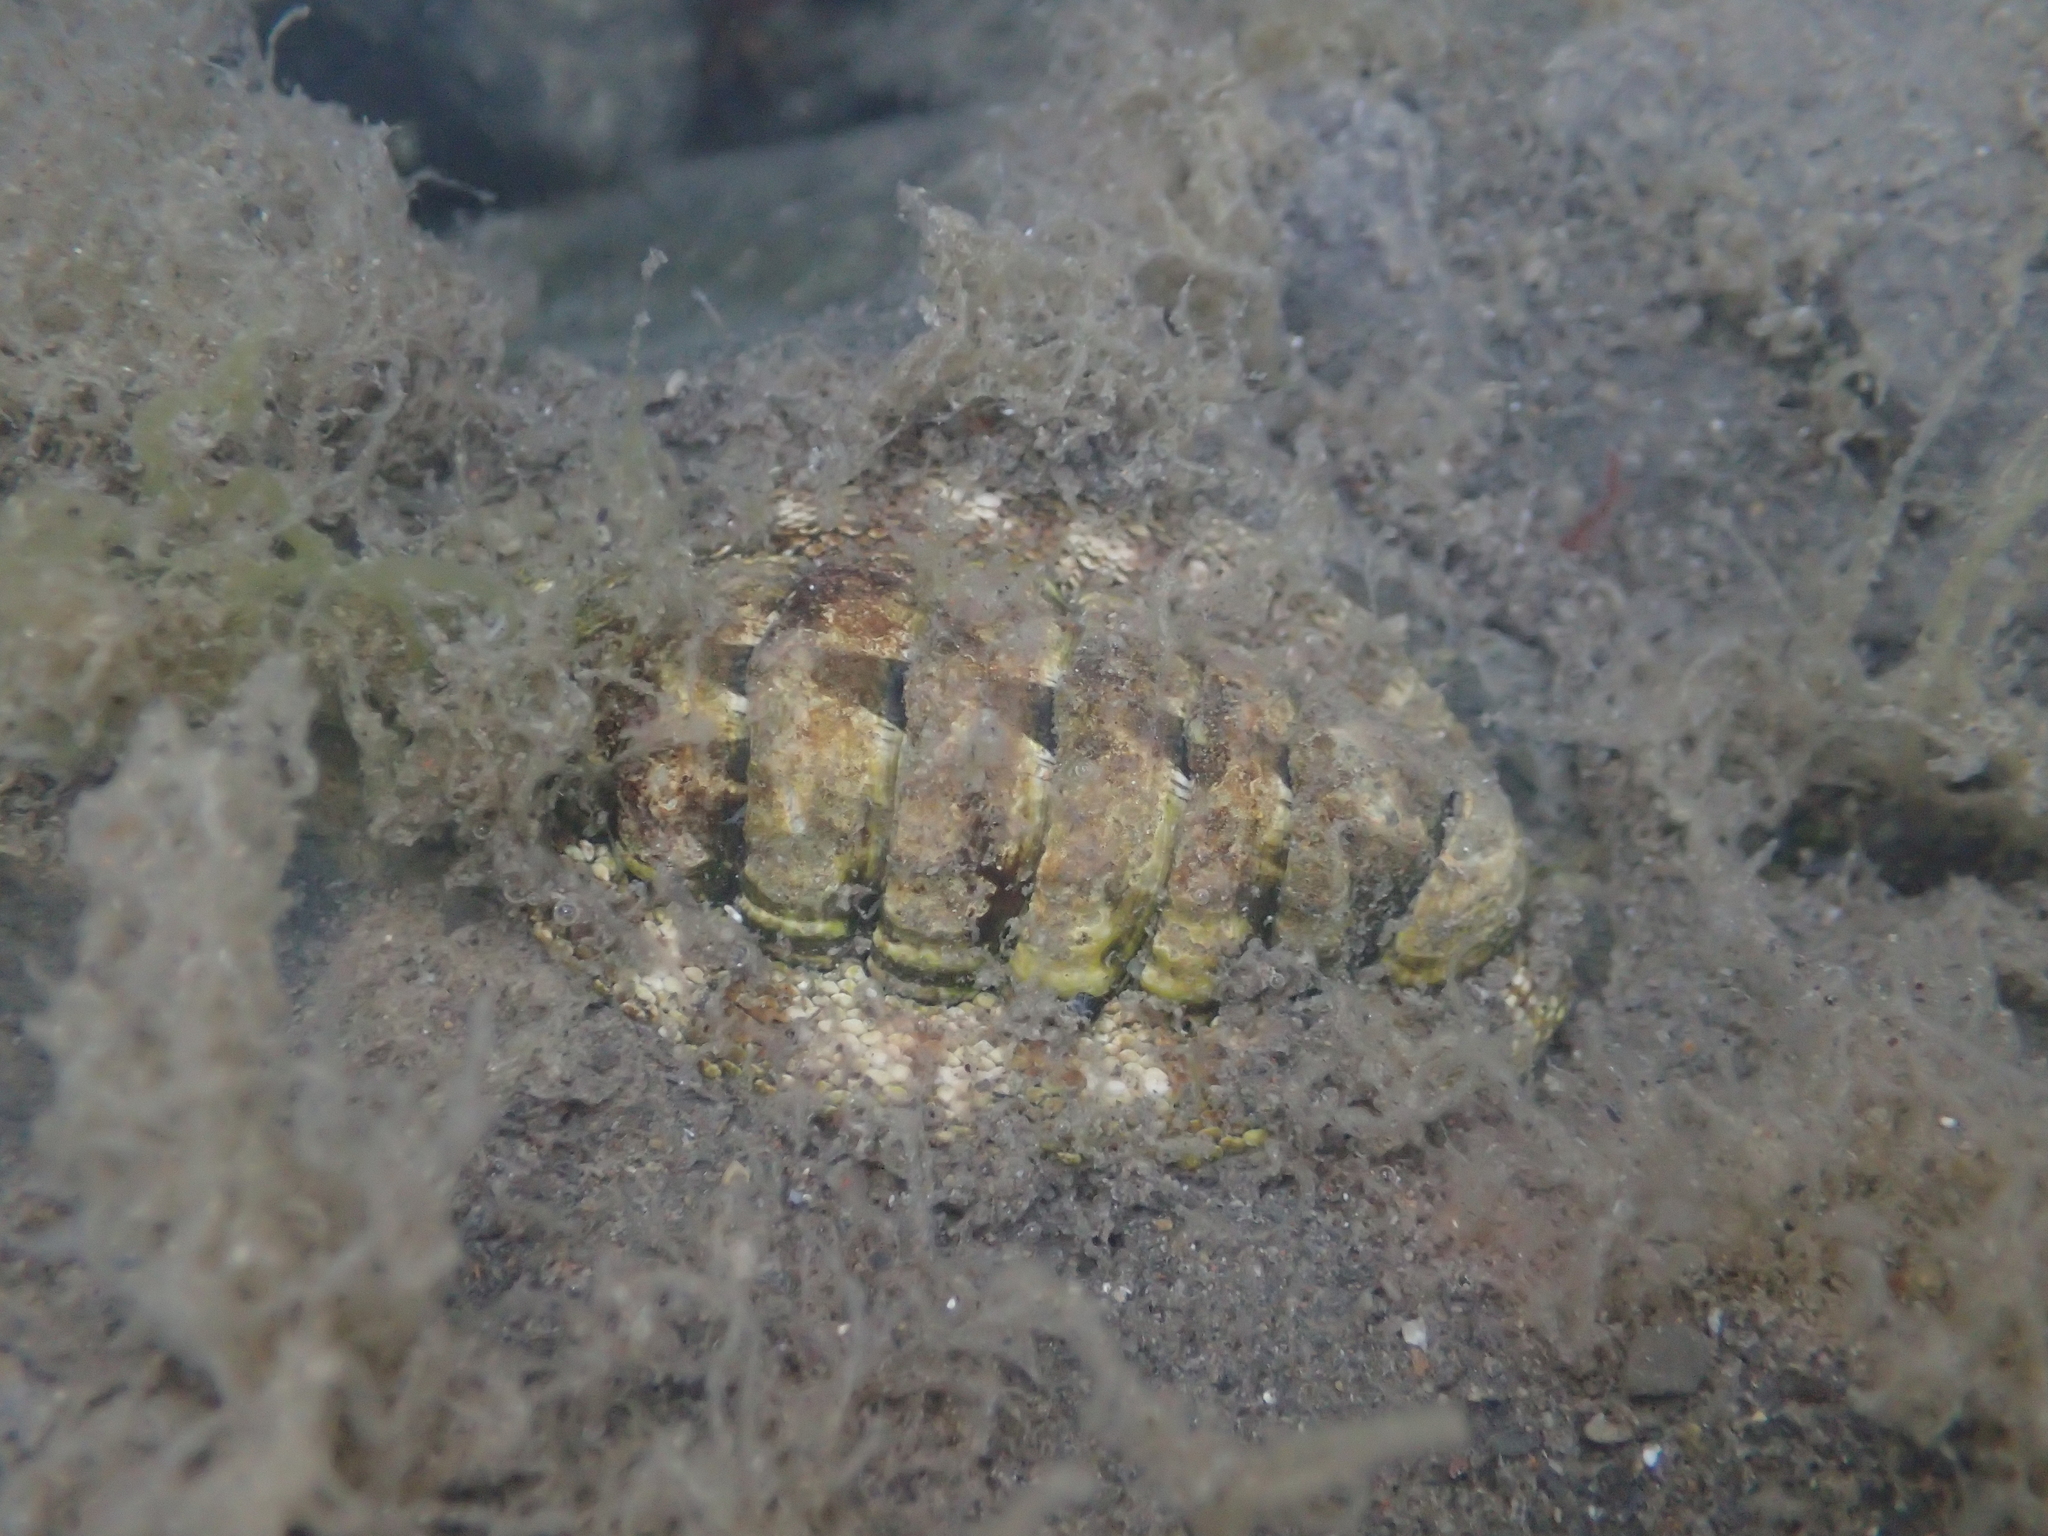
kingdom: Animalia
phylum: Mollusca
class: Polyplacophora
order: Chitonida
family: Chitonidae
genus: Sypharochiton
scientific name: Sypharochiton pelliserpentis
